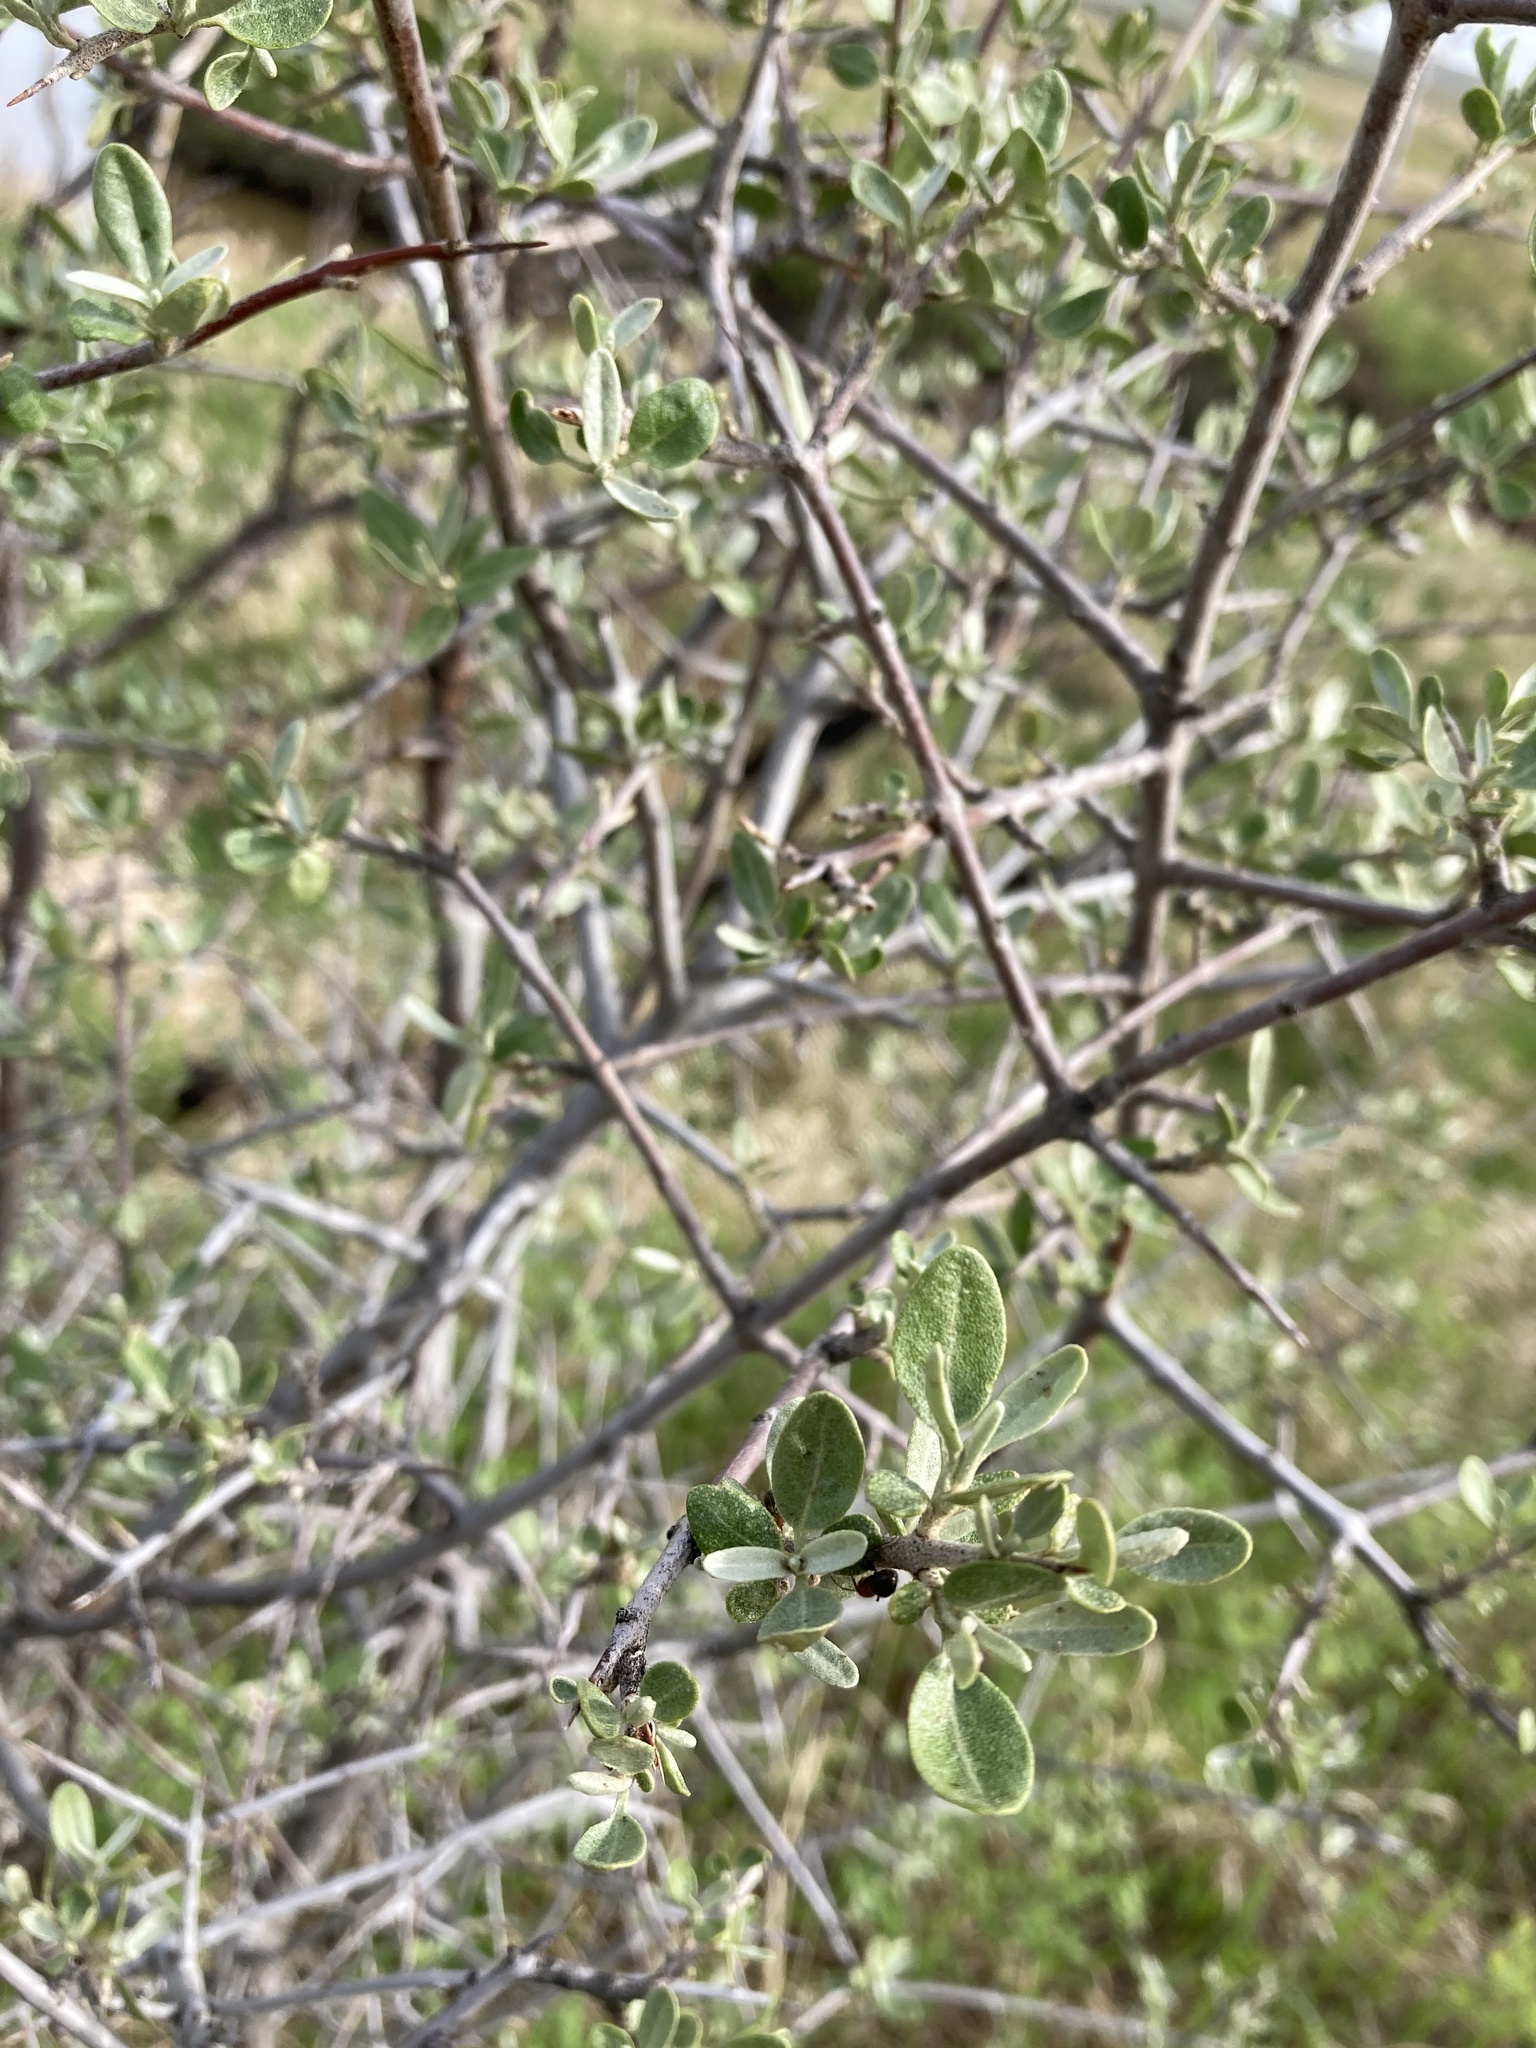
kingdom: Plantae
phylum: Tracheophyta
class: Magnoliopsida
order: Rosales
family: Elaeagnaceae
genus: Shepherdia
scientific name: Shepherdia argentea
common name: Silver buffaloberry
